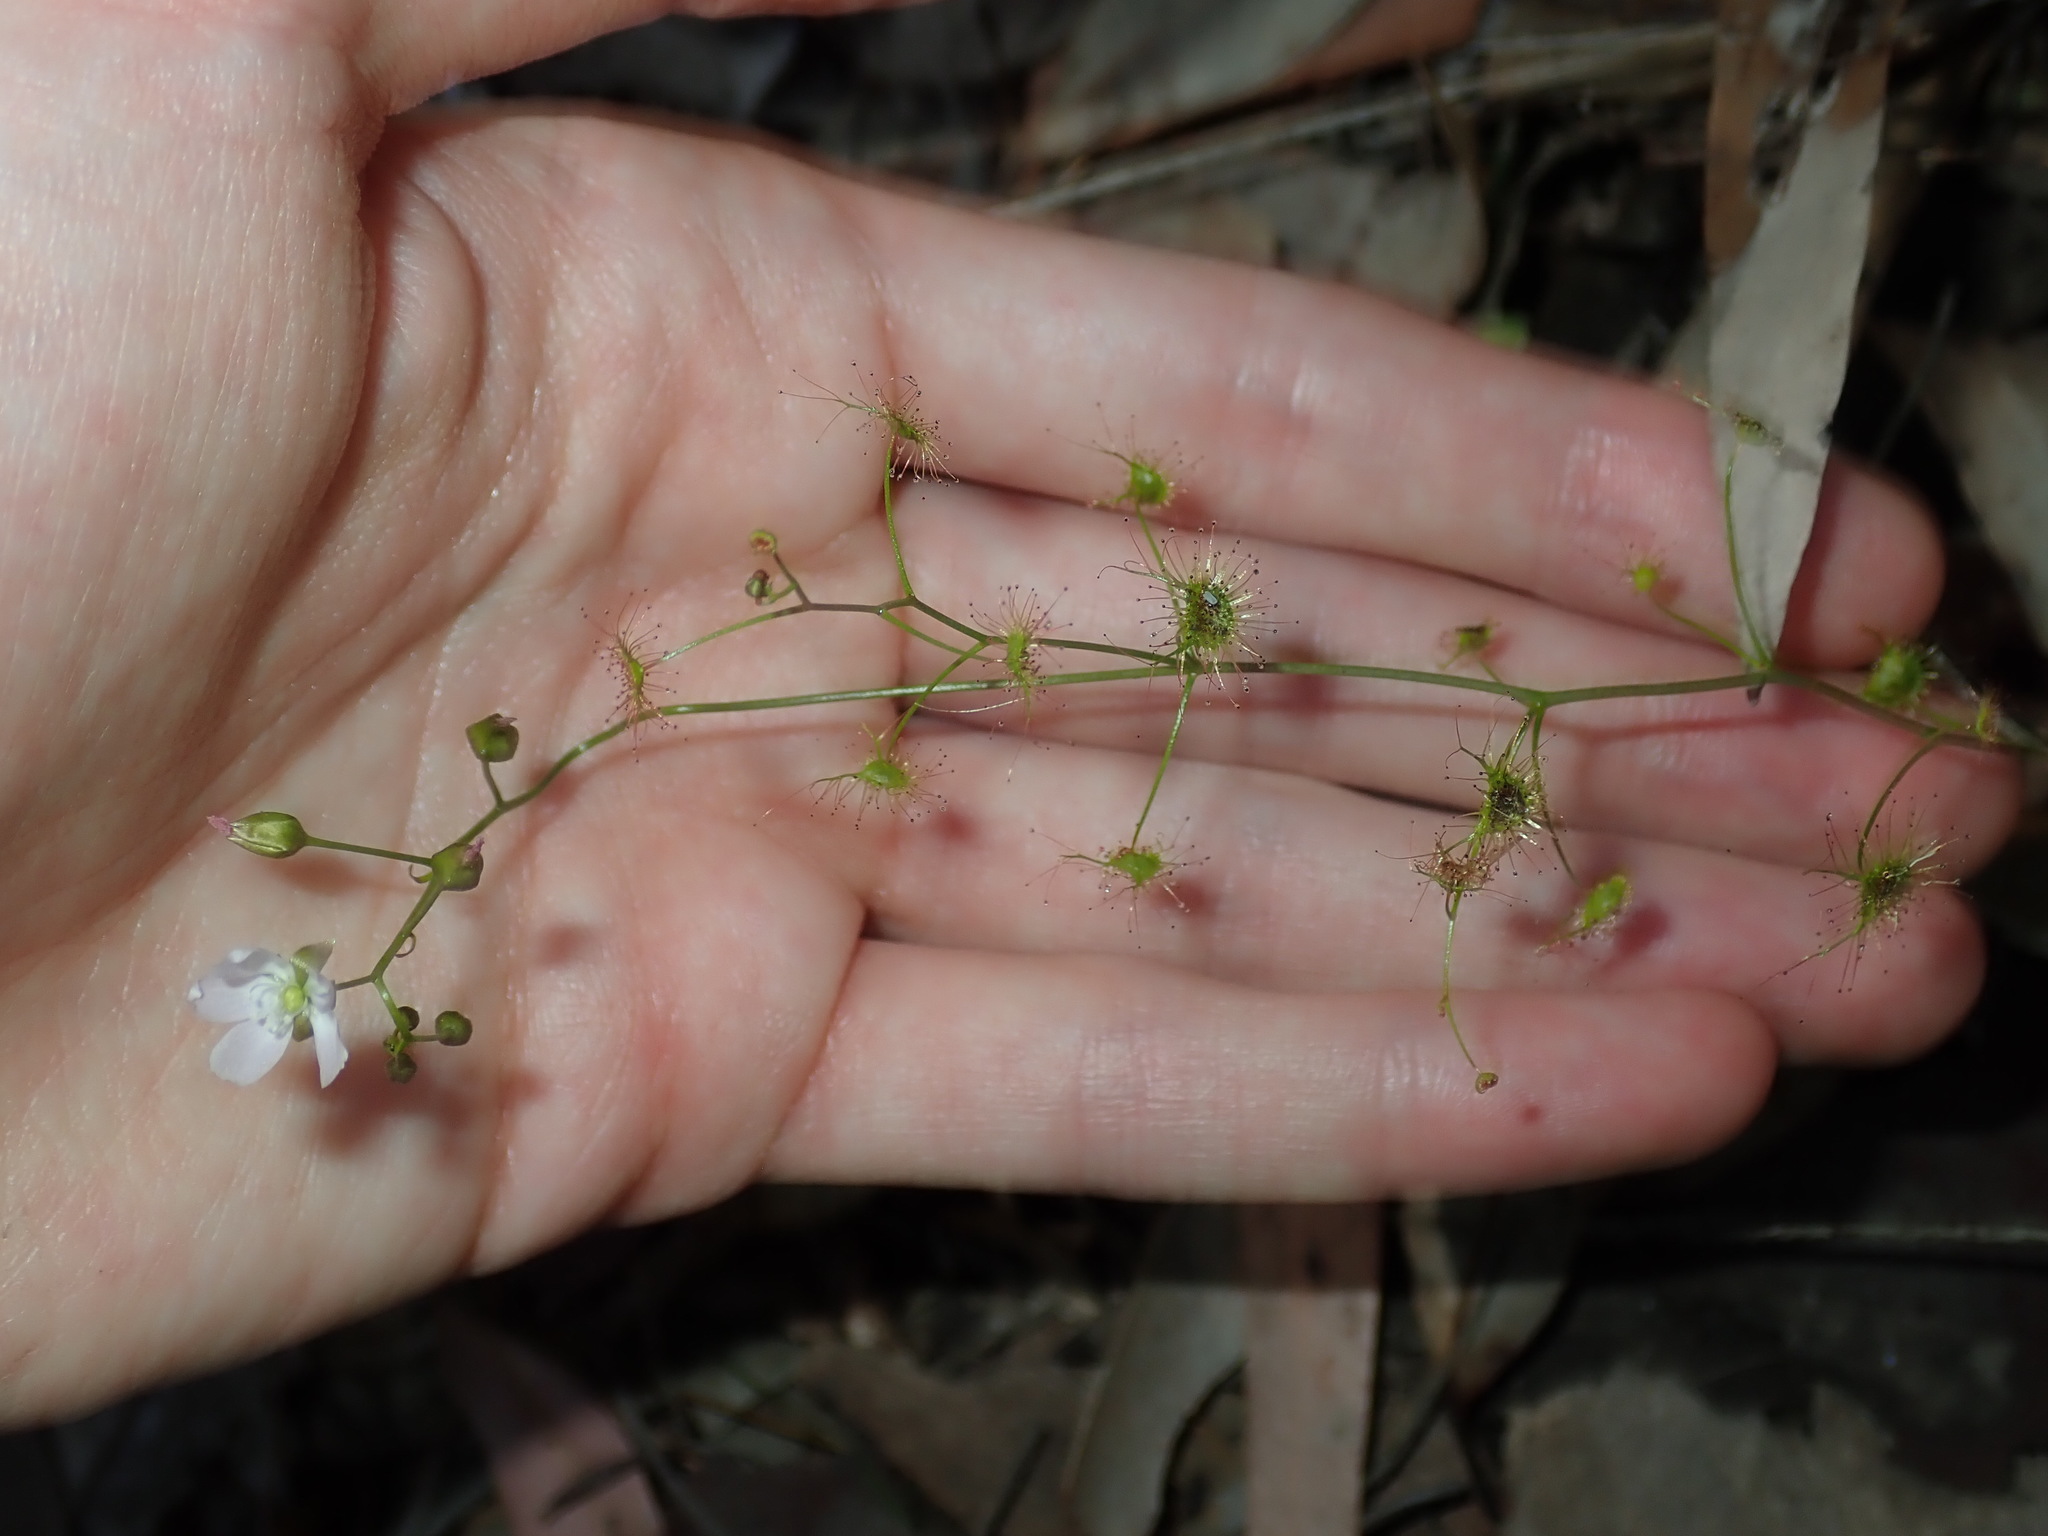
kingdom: Plantae
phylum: Tracheophyta
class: Magnoliopsida
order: Caryophyllales
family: Droseraceae
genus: Drosera
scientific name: Drosera peltata
